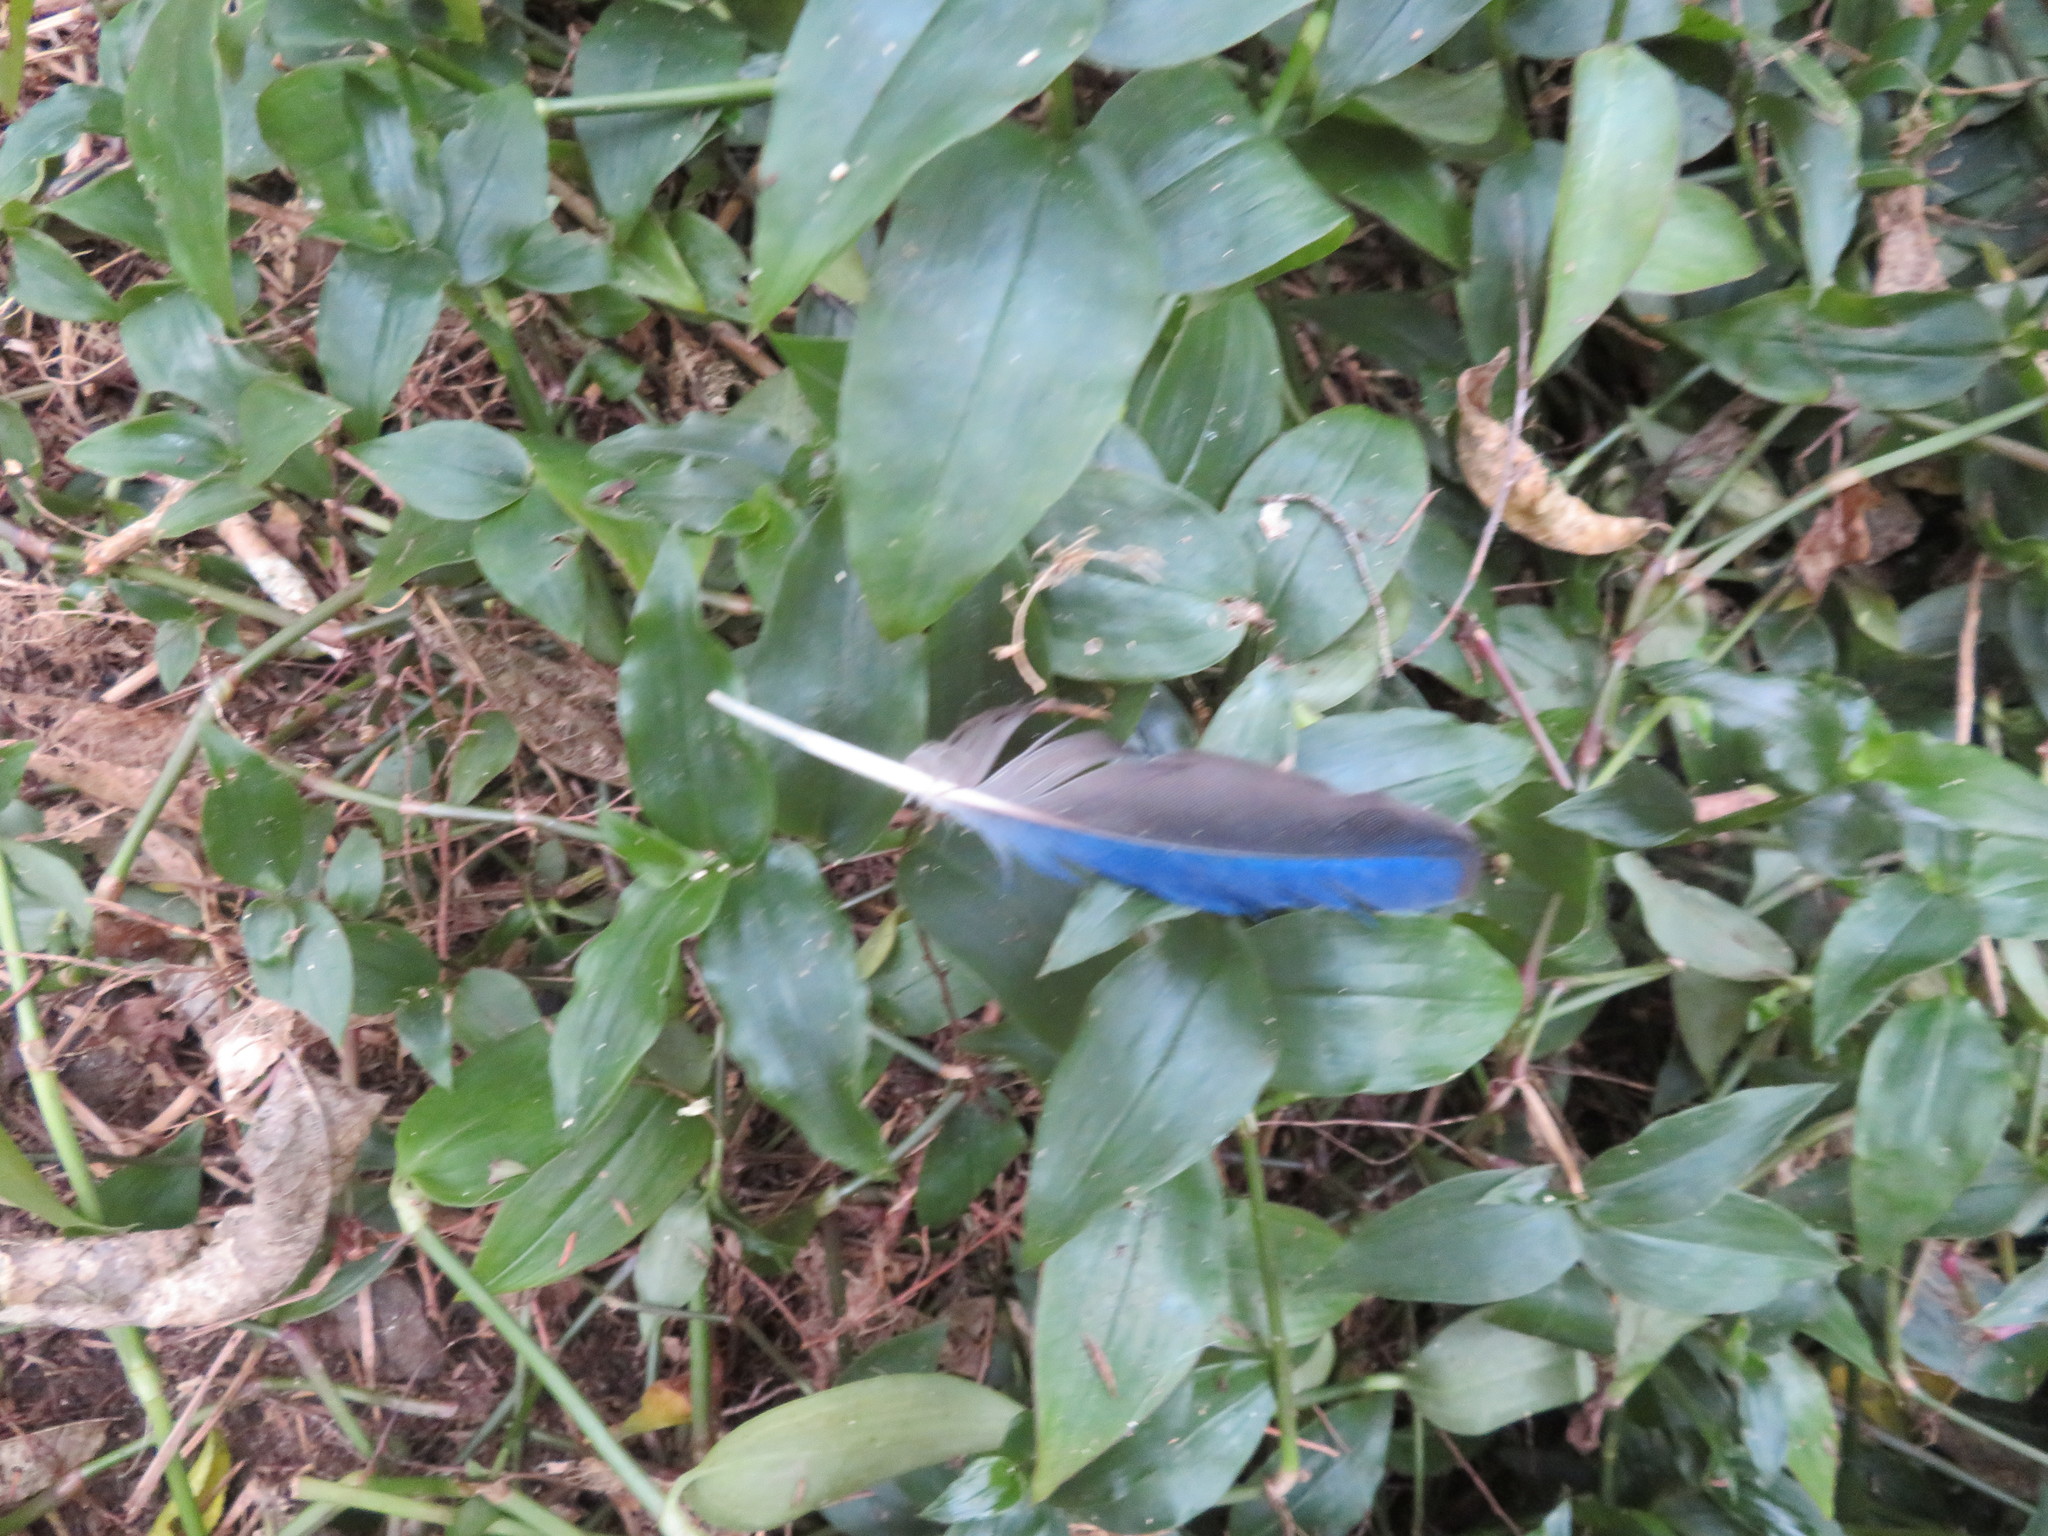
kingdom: Animalia
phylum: Chordata
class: Aves
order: Psittaciformes
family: Psittacidae
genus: Platycercus
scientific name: Platycercus eximius
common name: Eastern rosella
